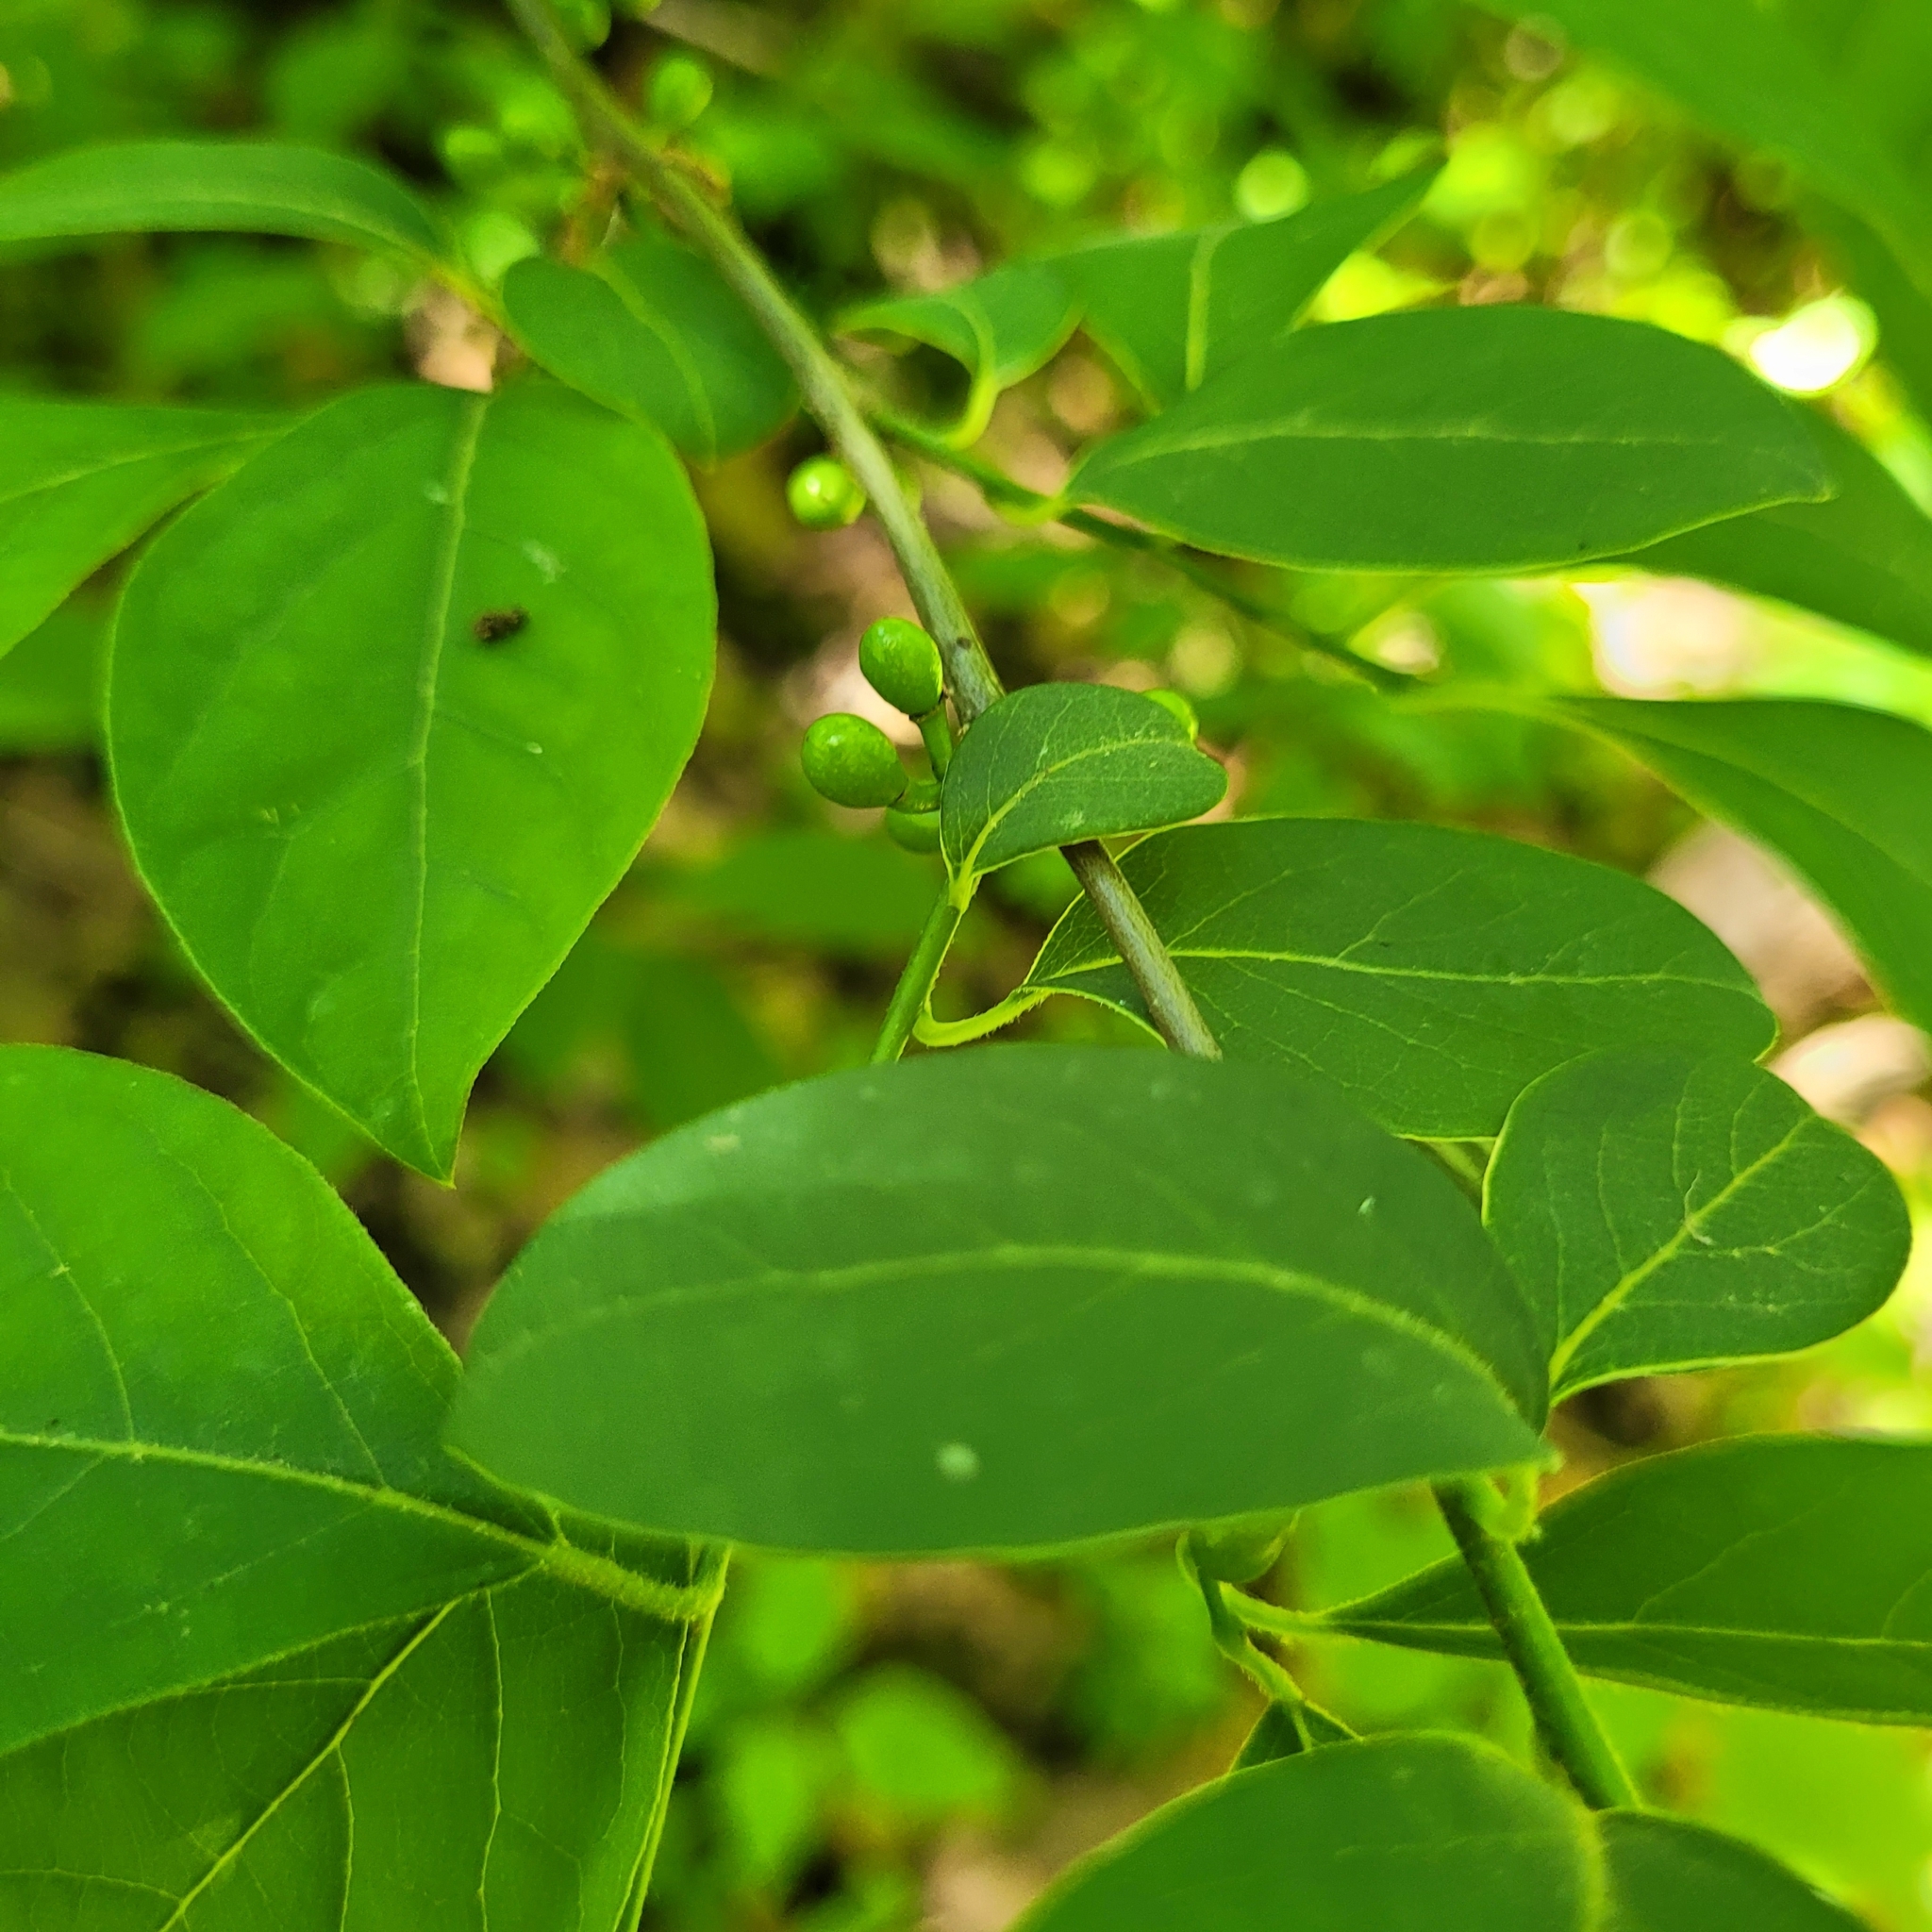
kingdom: Plantae
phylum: Tracheophyta
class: Magnoliopsida
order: Laurales
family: Lauraceae
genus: Lindera
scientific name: Lindera benzoin
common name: Spicebush
